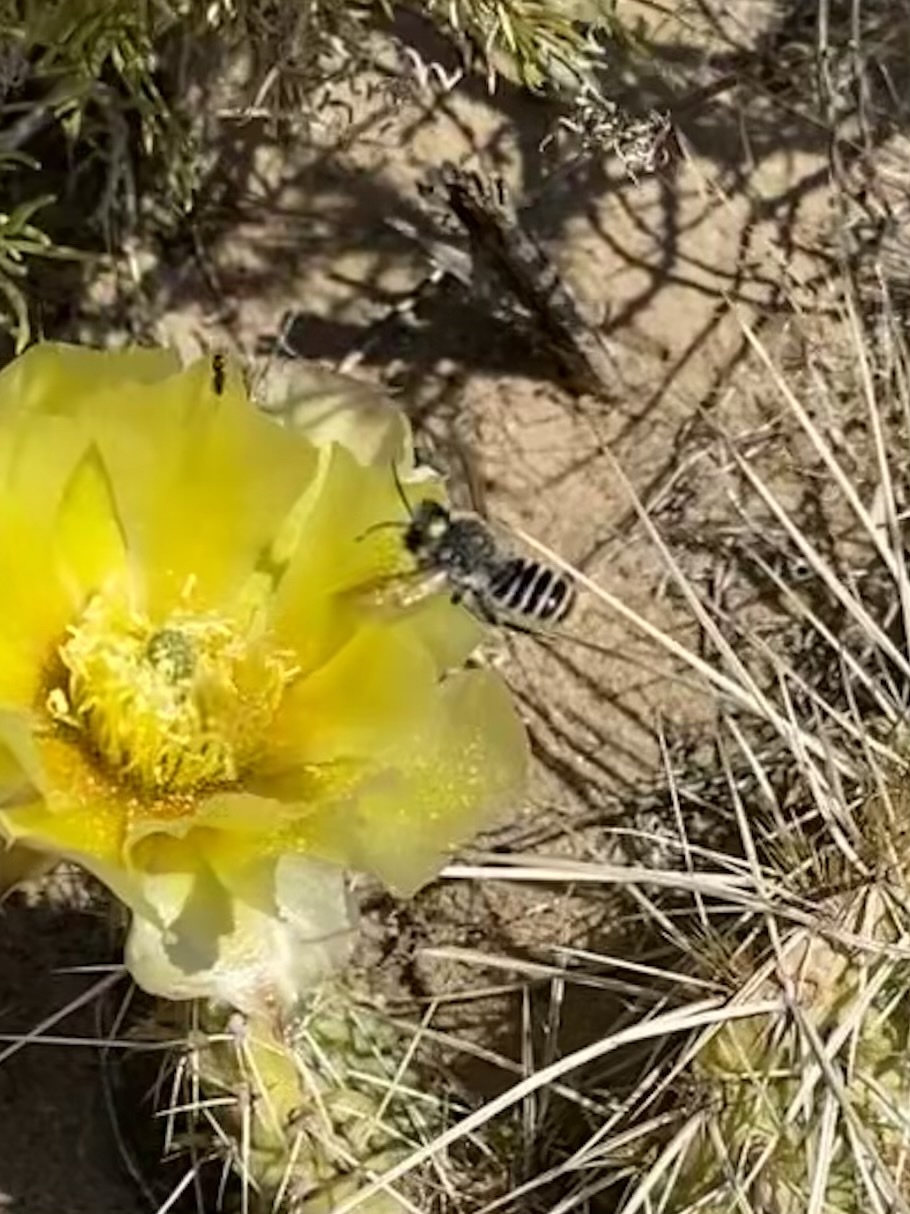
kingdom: Animalia
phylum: Arthropoda
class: Insecta
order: Hymenoptera
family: Megachilidae
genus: Lithurgopsis
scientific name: Lithurgopsis
